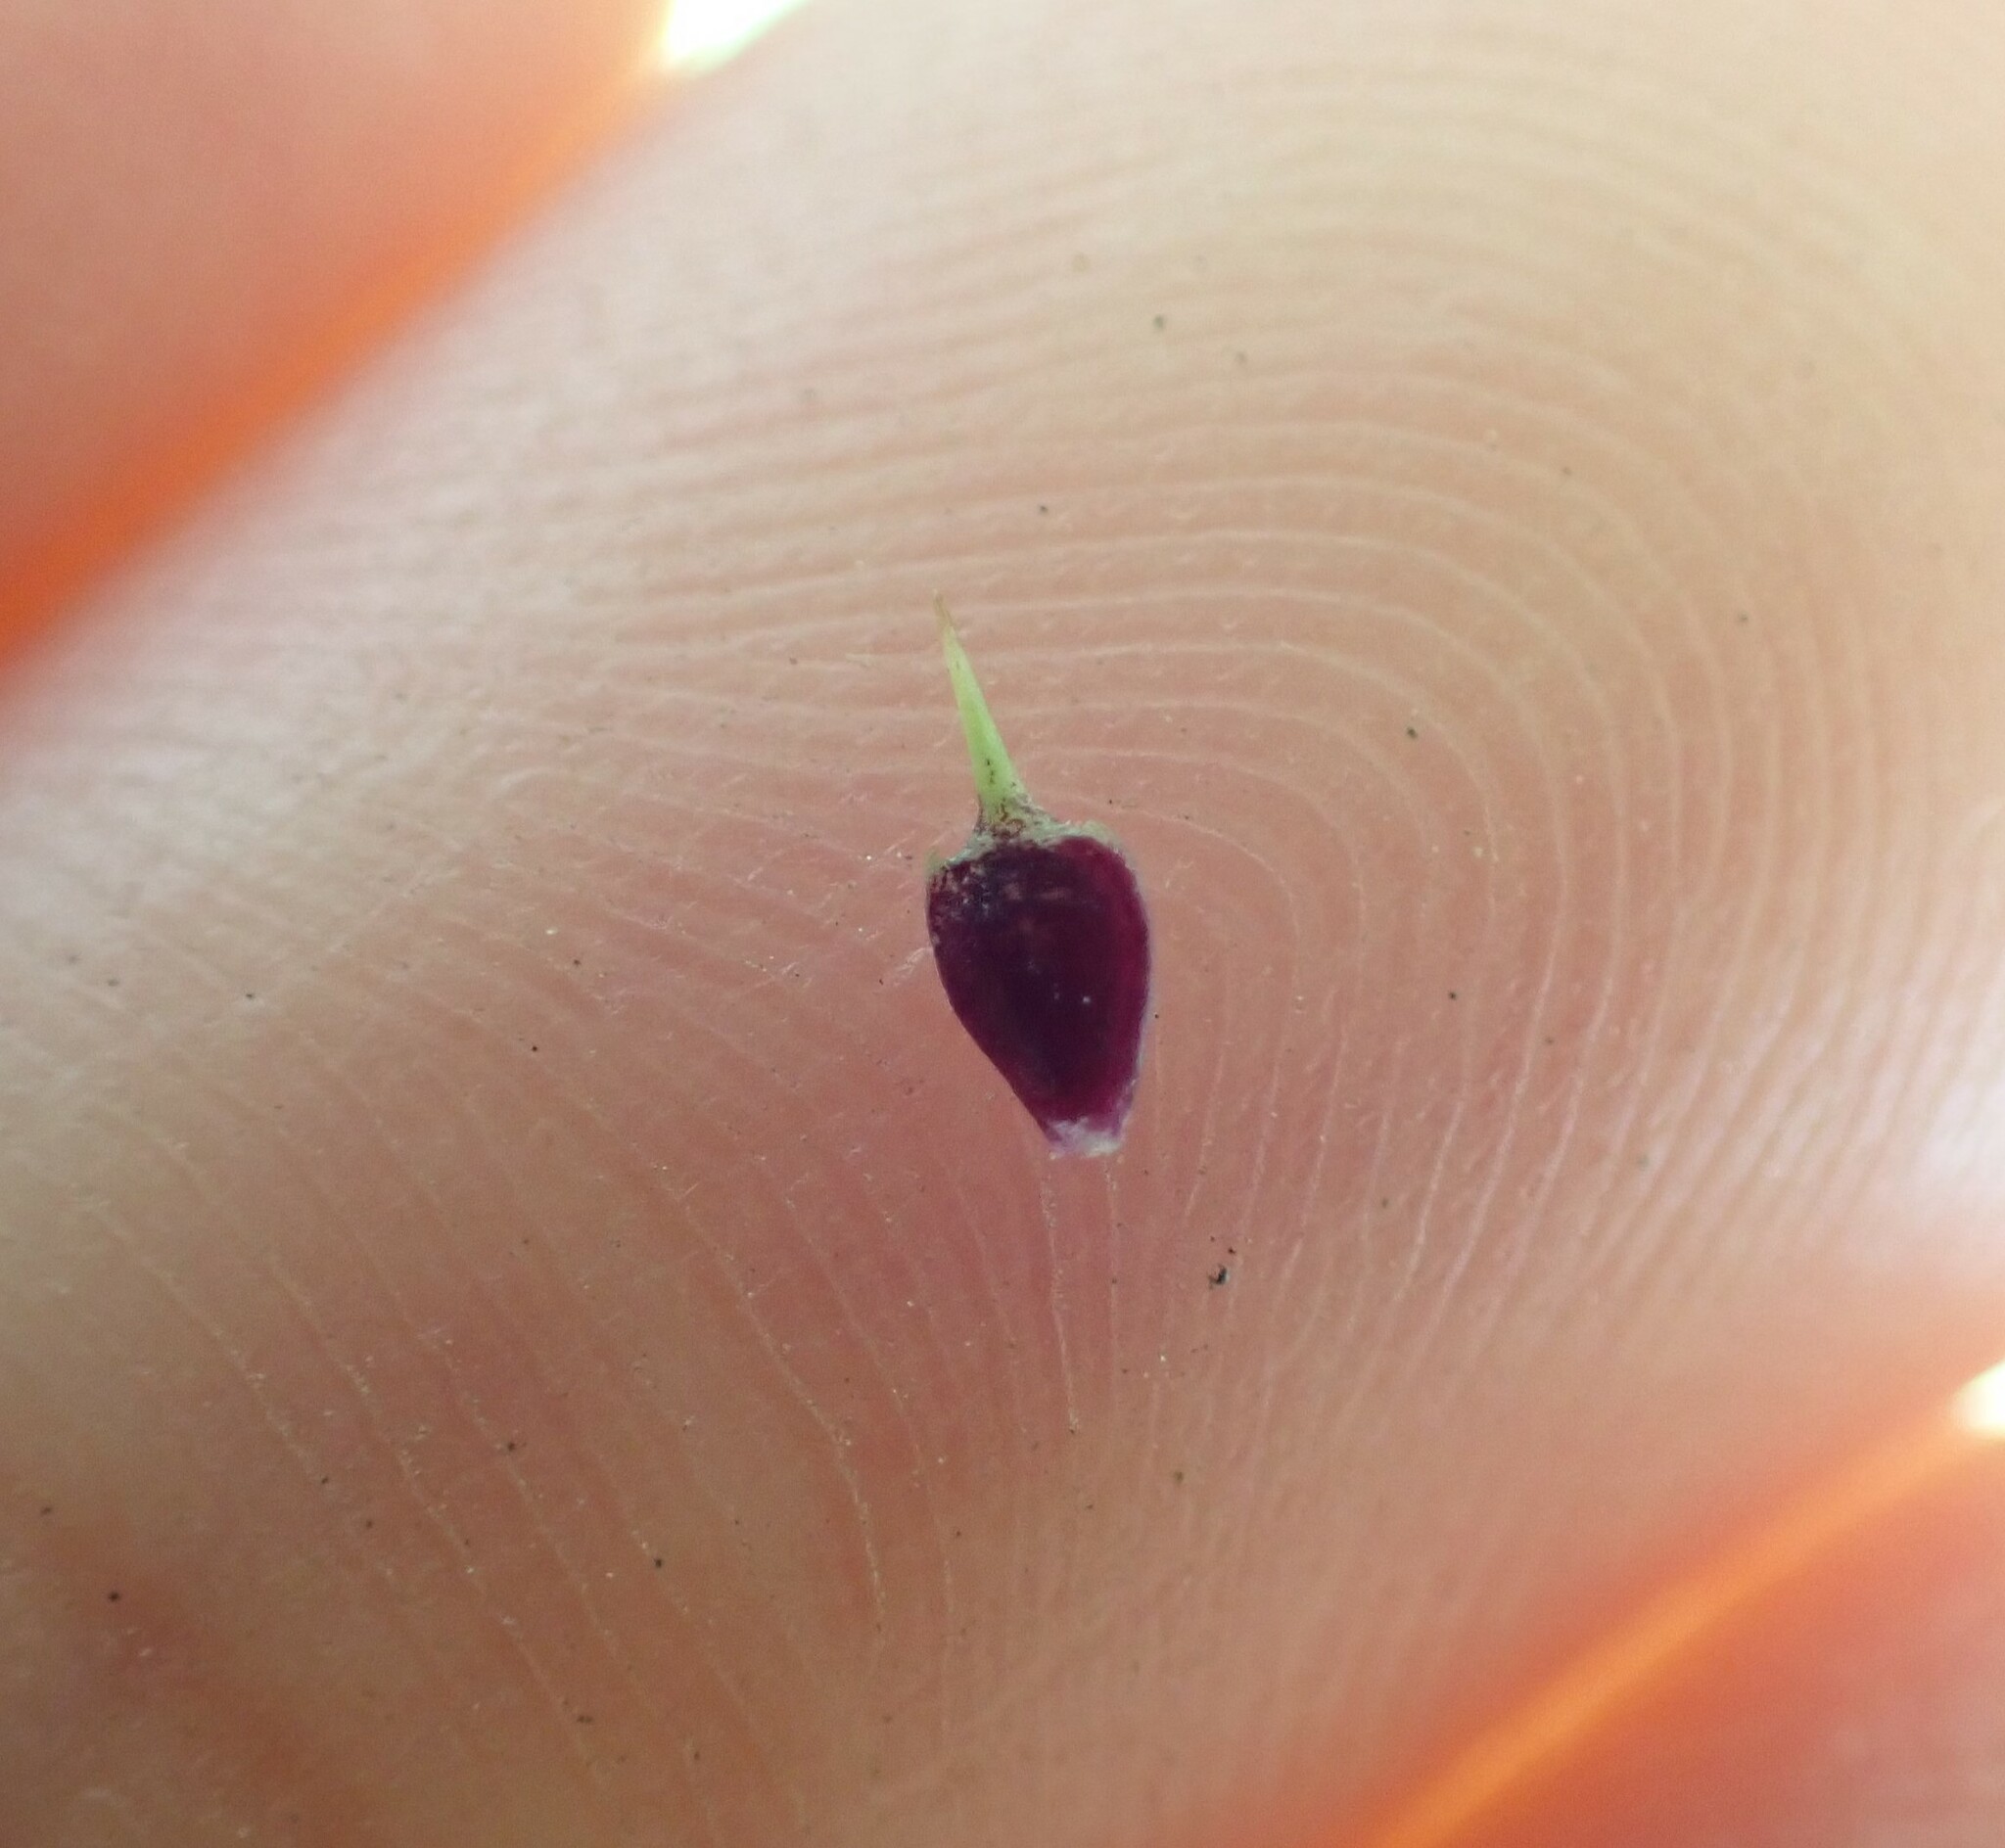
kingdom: Plantae
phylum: Tracheophyta
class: Magnoliopsida
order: Asterales
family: Asteraceae
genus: Soliva
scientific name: Soliva sessilis
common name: Field burrweed
